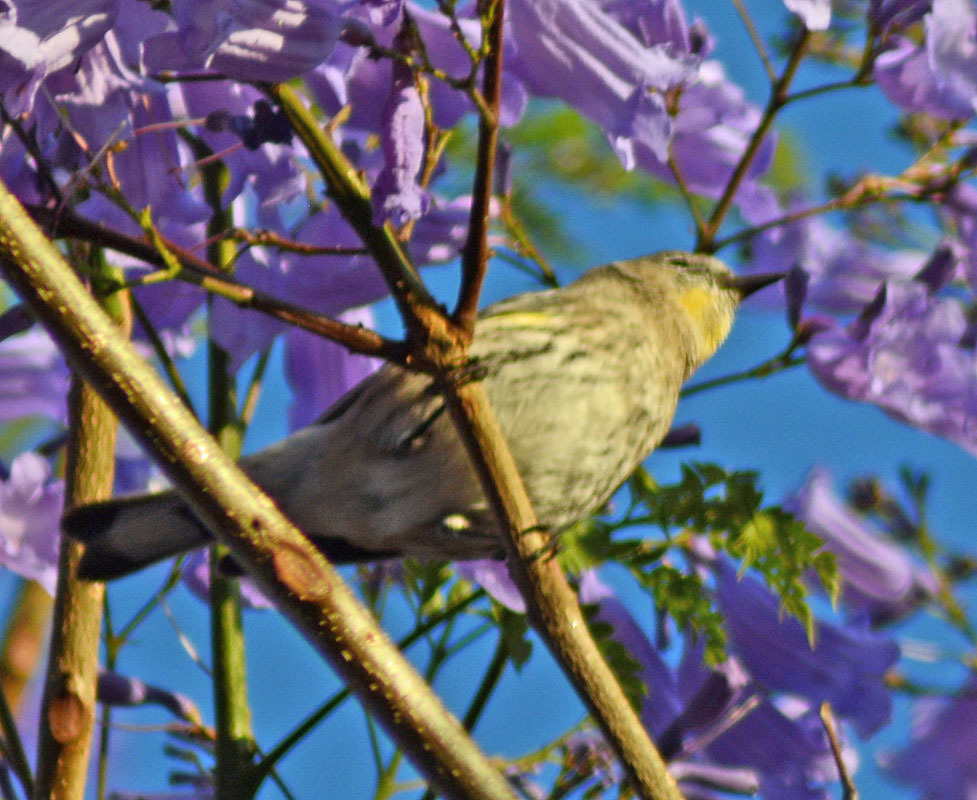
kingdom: Animalia
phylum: Chordata
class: Aves
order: Passeriformes
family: Parulidae
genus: Setophaga
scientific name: Setophaga coronata
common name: Myrtle warbler
